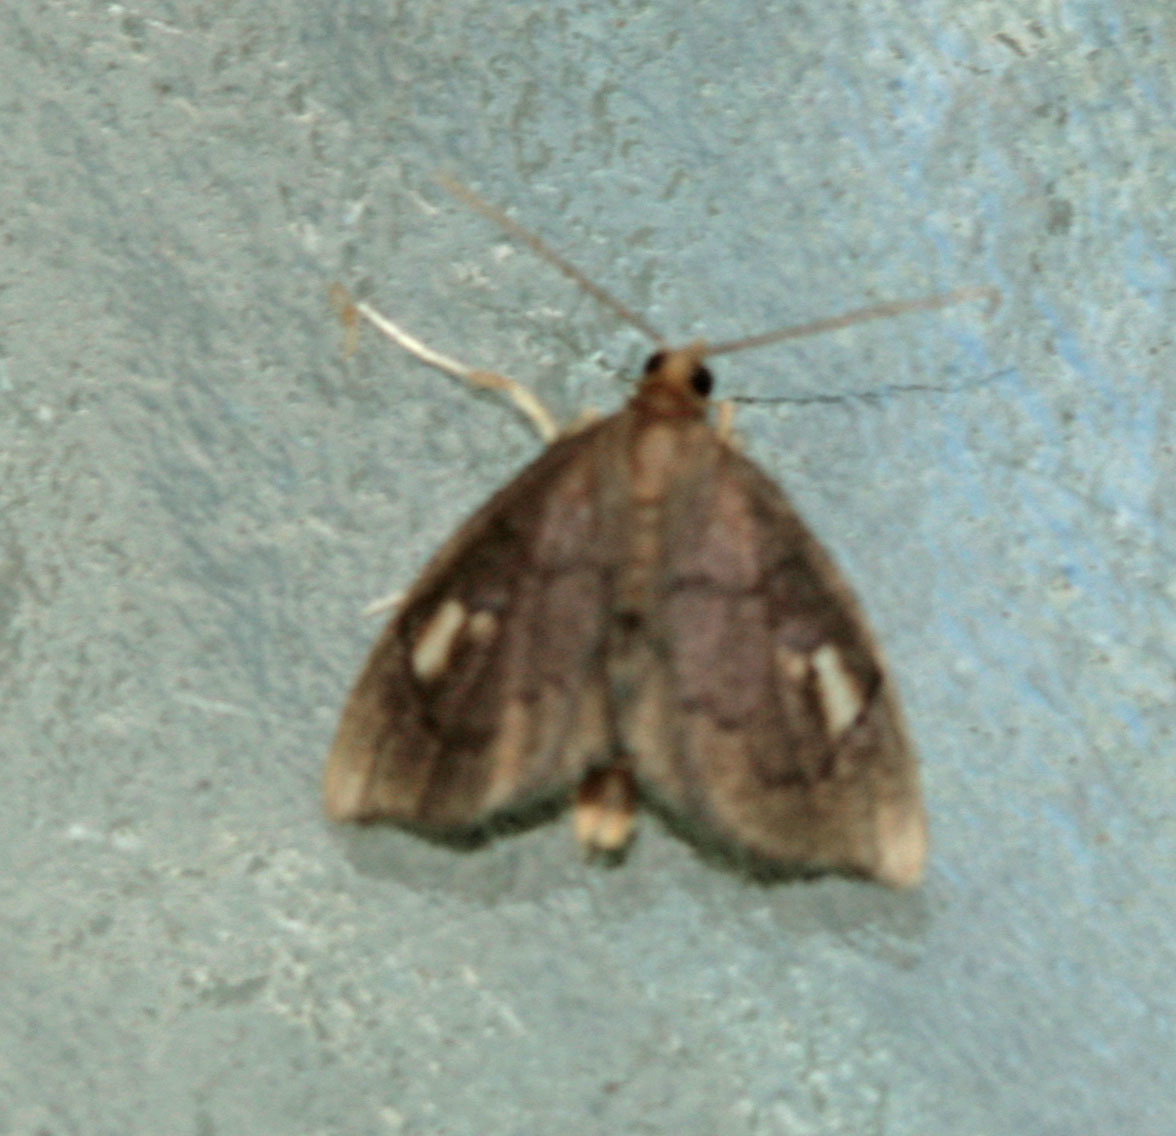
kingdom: Animalia
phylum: Arthropoda
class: Insecta
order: Lepidoptera
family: Crambidae
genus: Perispasta
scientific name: Perispasta caeculalis
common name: Titian peale's moth
